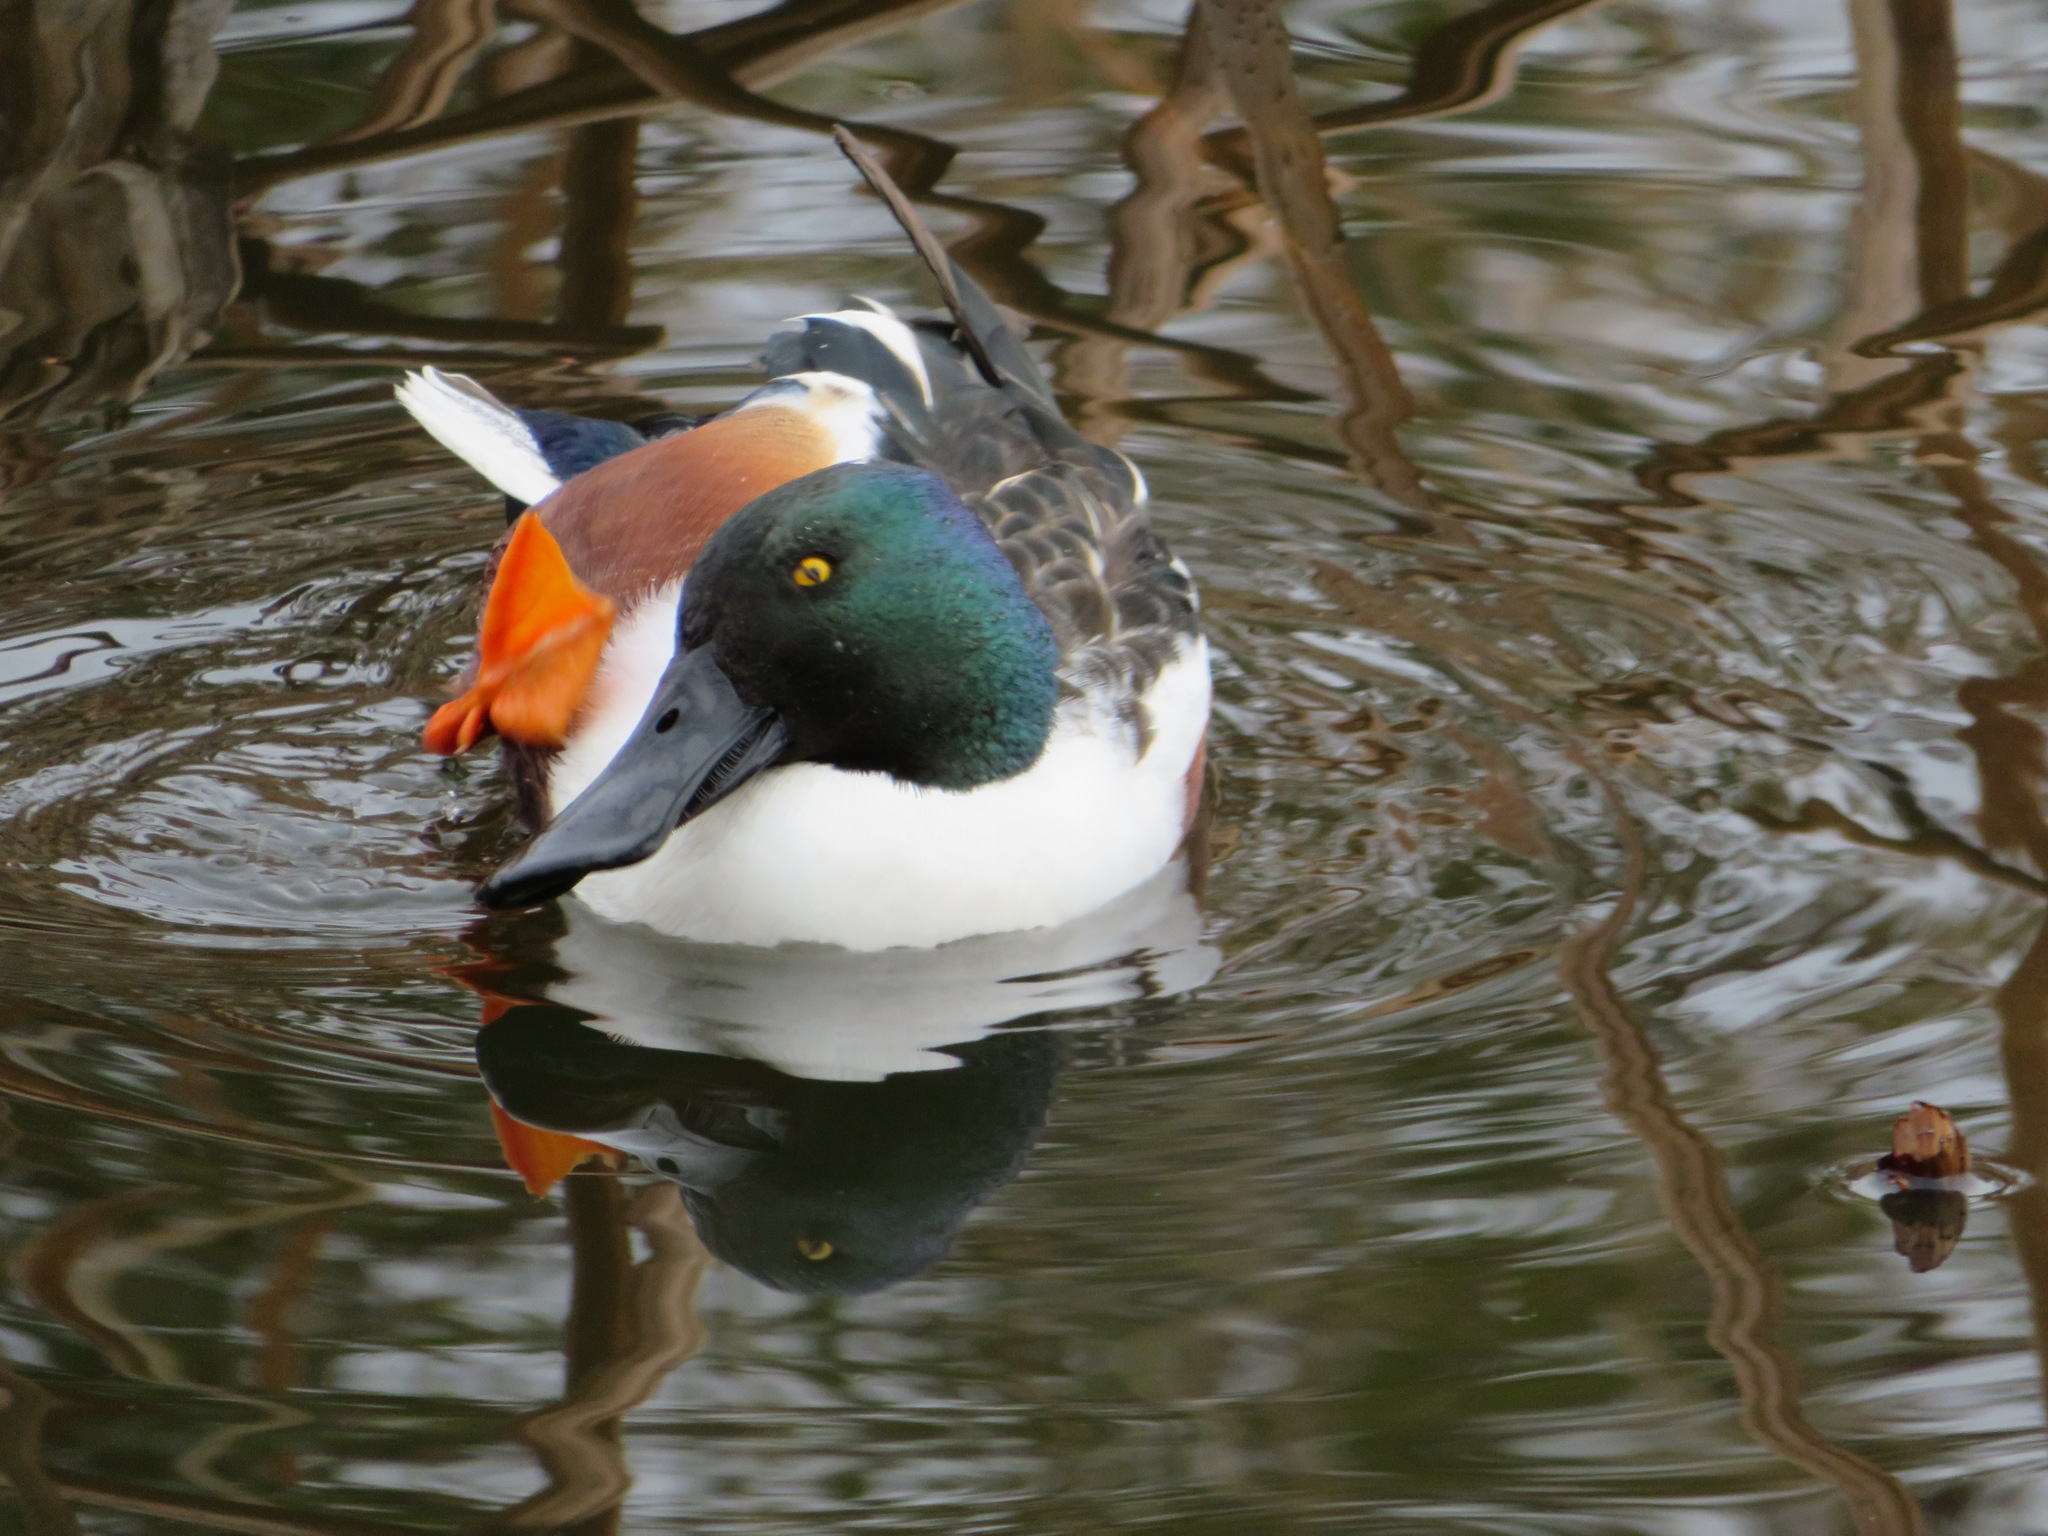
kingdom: Animalia
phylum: Chordata
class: Aves
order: Anseriformes
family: Anatidae
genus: Spatula
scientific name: Spatula clypeata
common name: Northern shoveler
